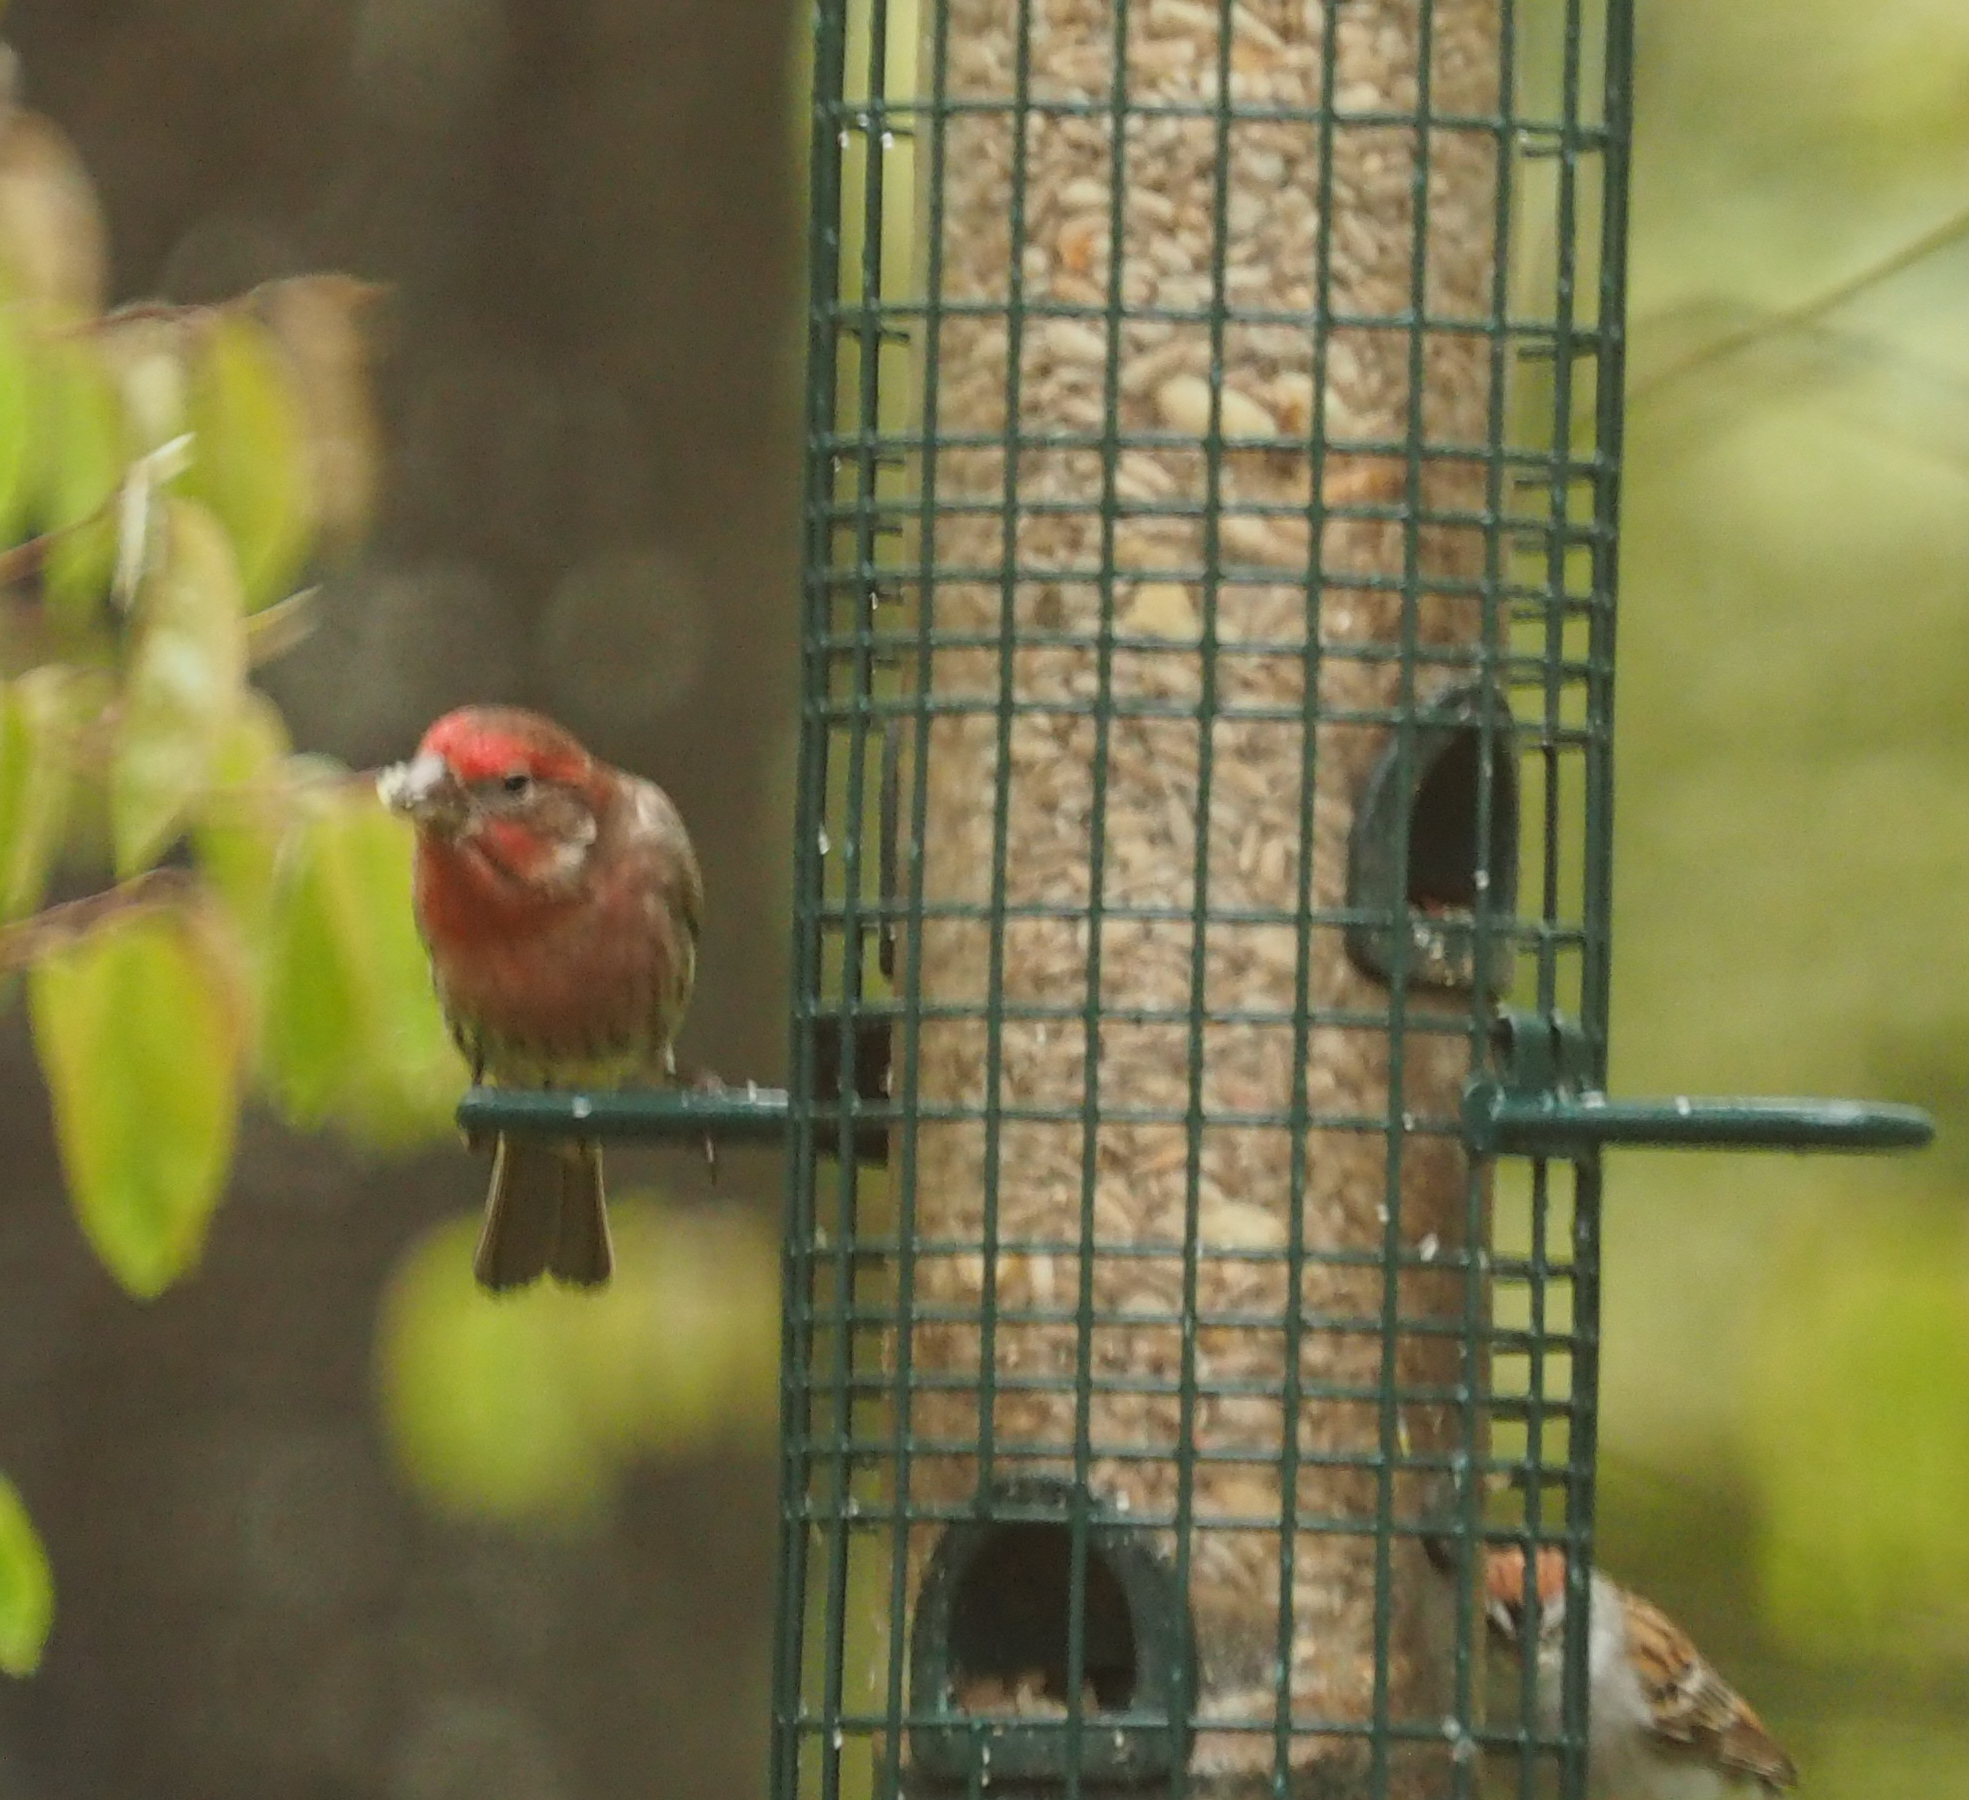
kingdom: Animalia
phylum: Chordata
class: Aves
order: Passeriformes
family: Fringillidae
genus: Haemorhous
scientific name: Haemorhous mexicanus
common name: House finch
